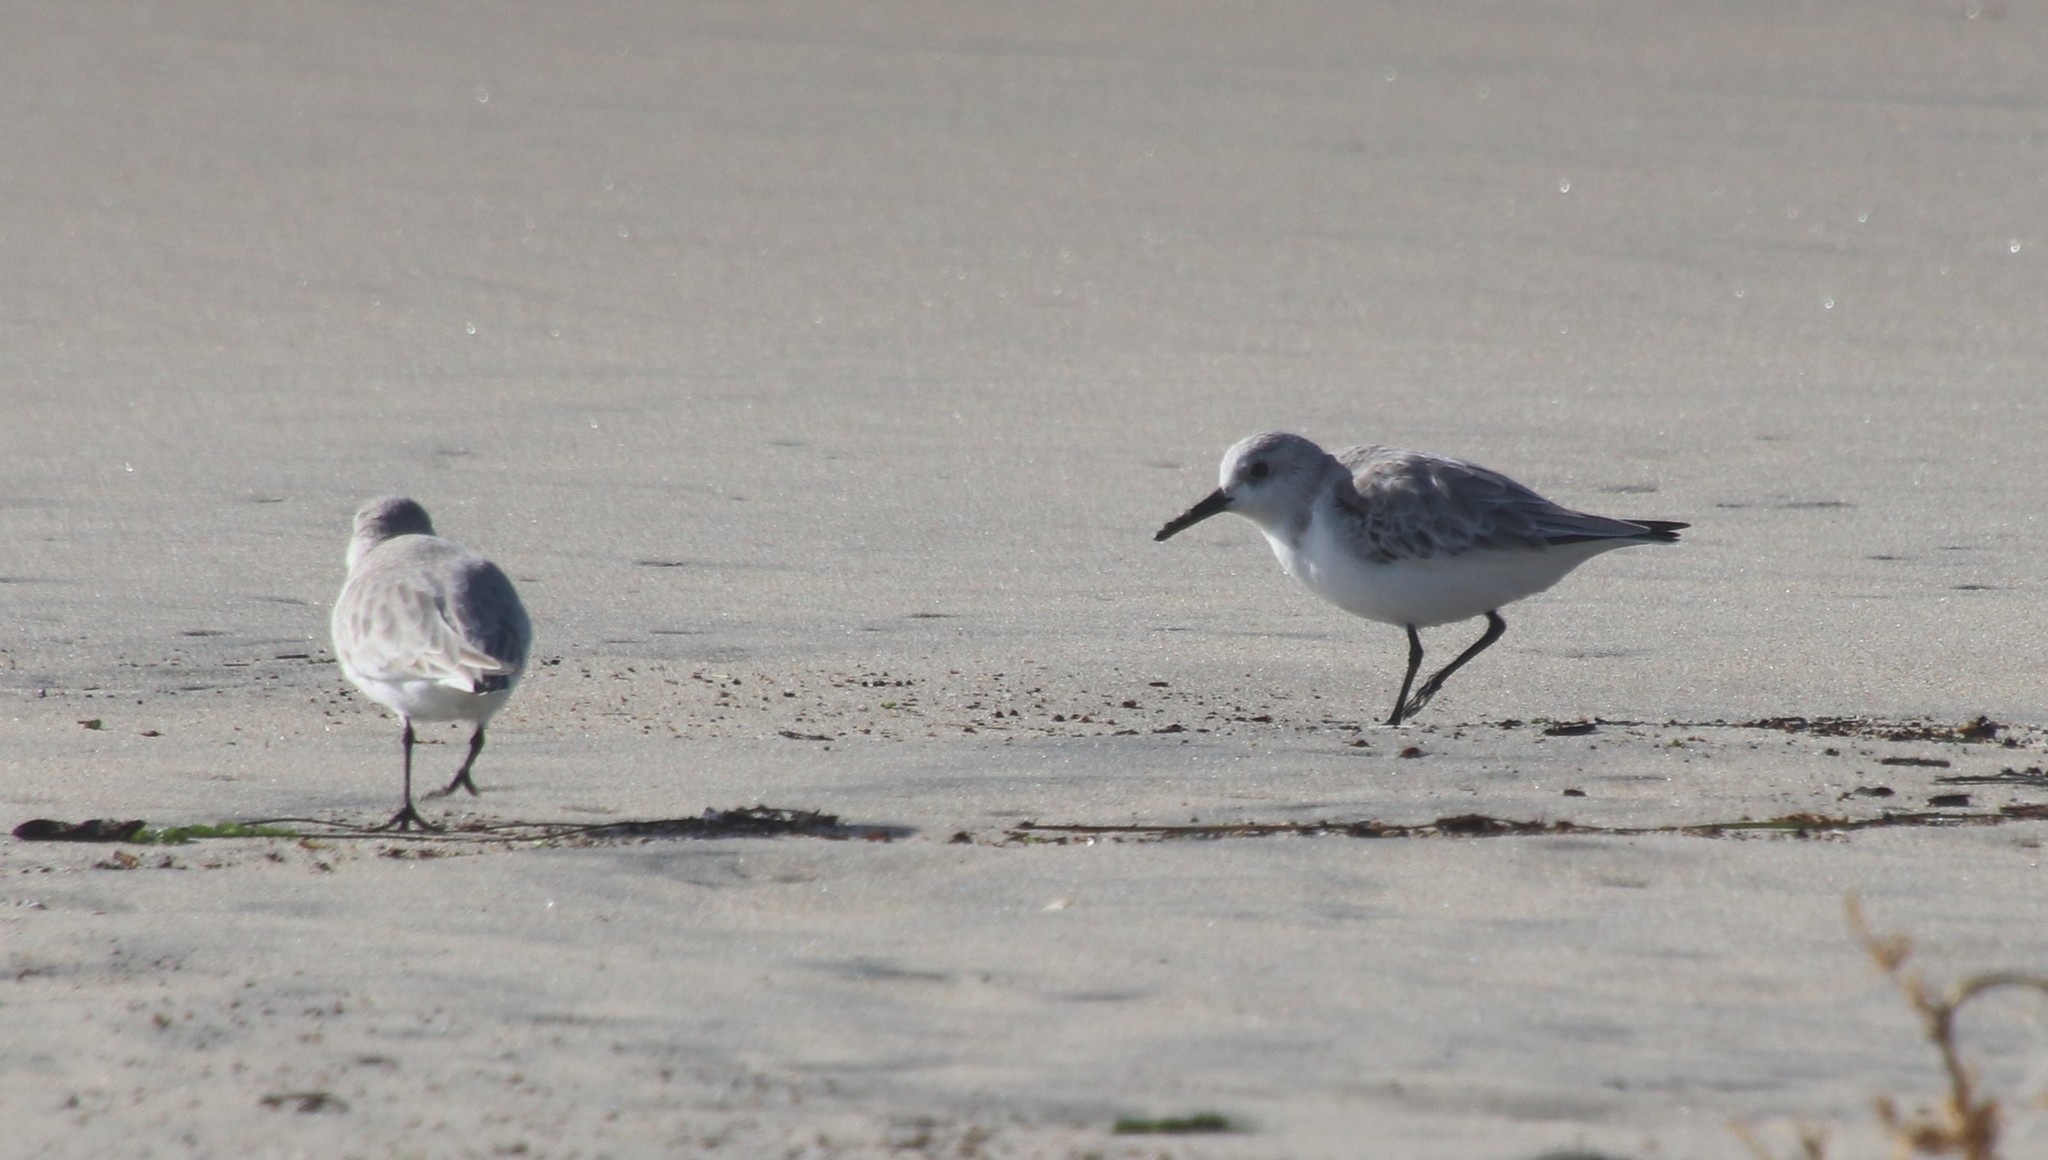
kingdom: Animalia
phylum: Chordata
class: Aves
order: Charadriiformes
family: Scolopacidae
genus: Calidris
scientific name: Calidris alba
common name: Sanderling
